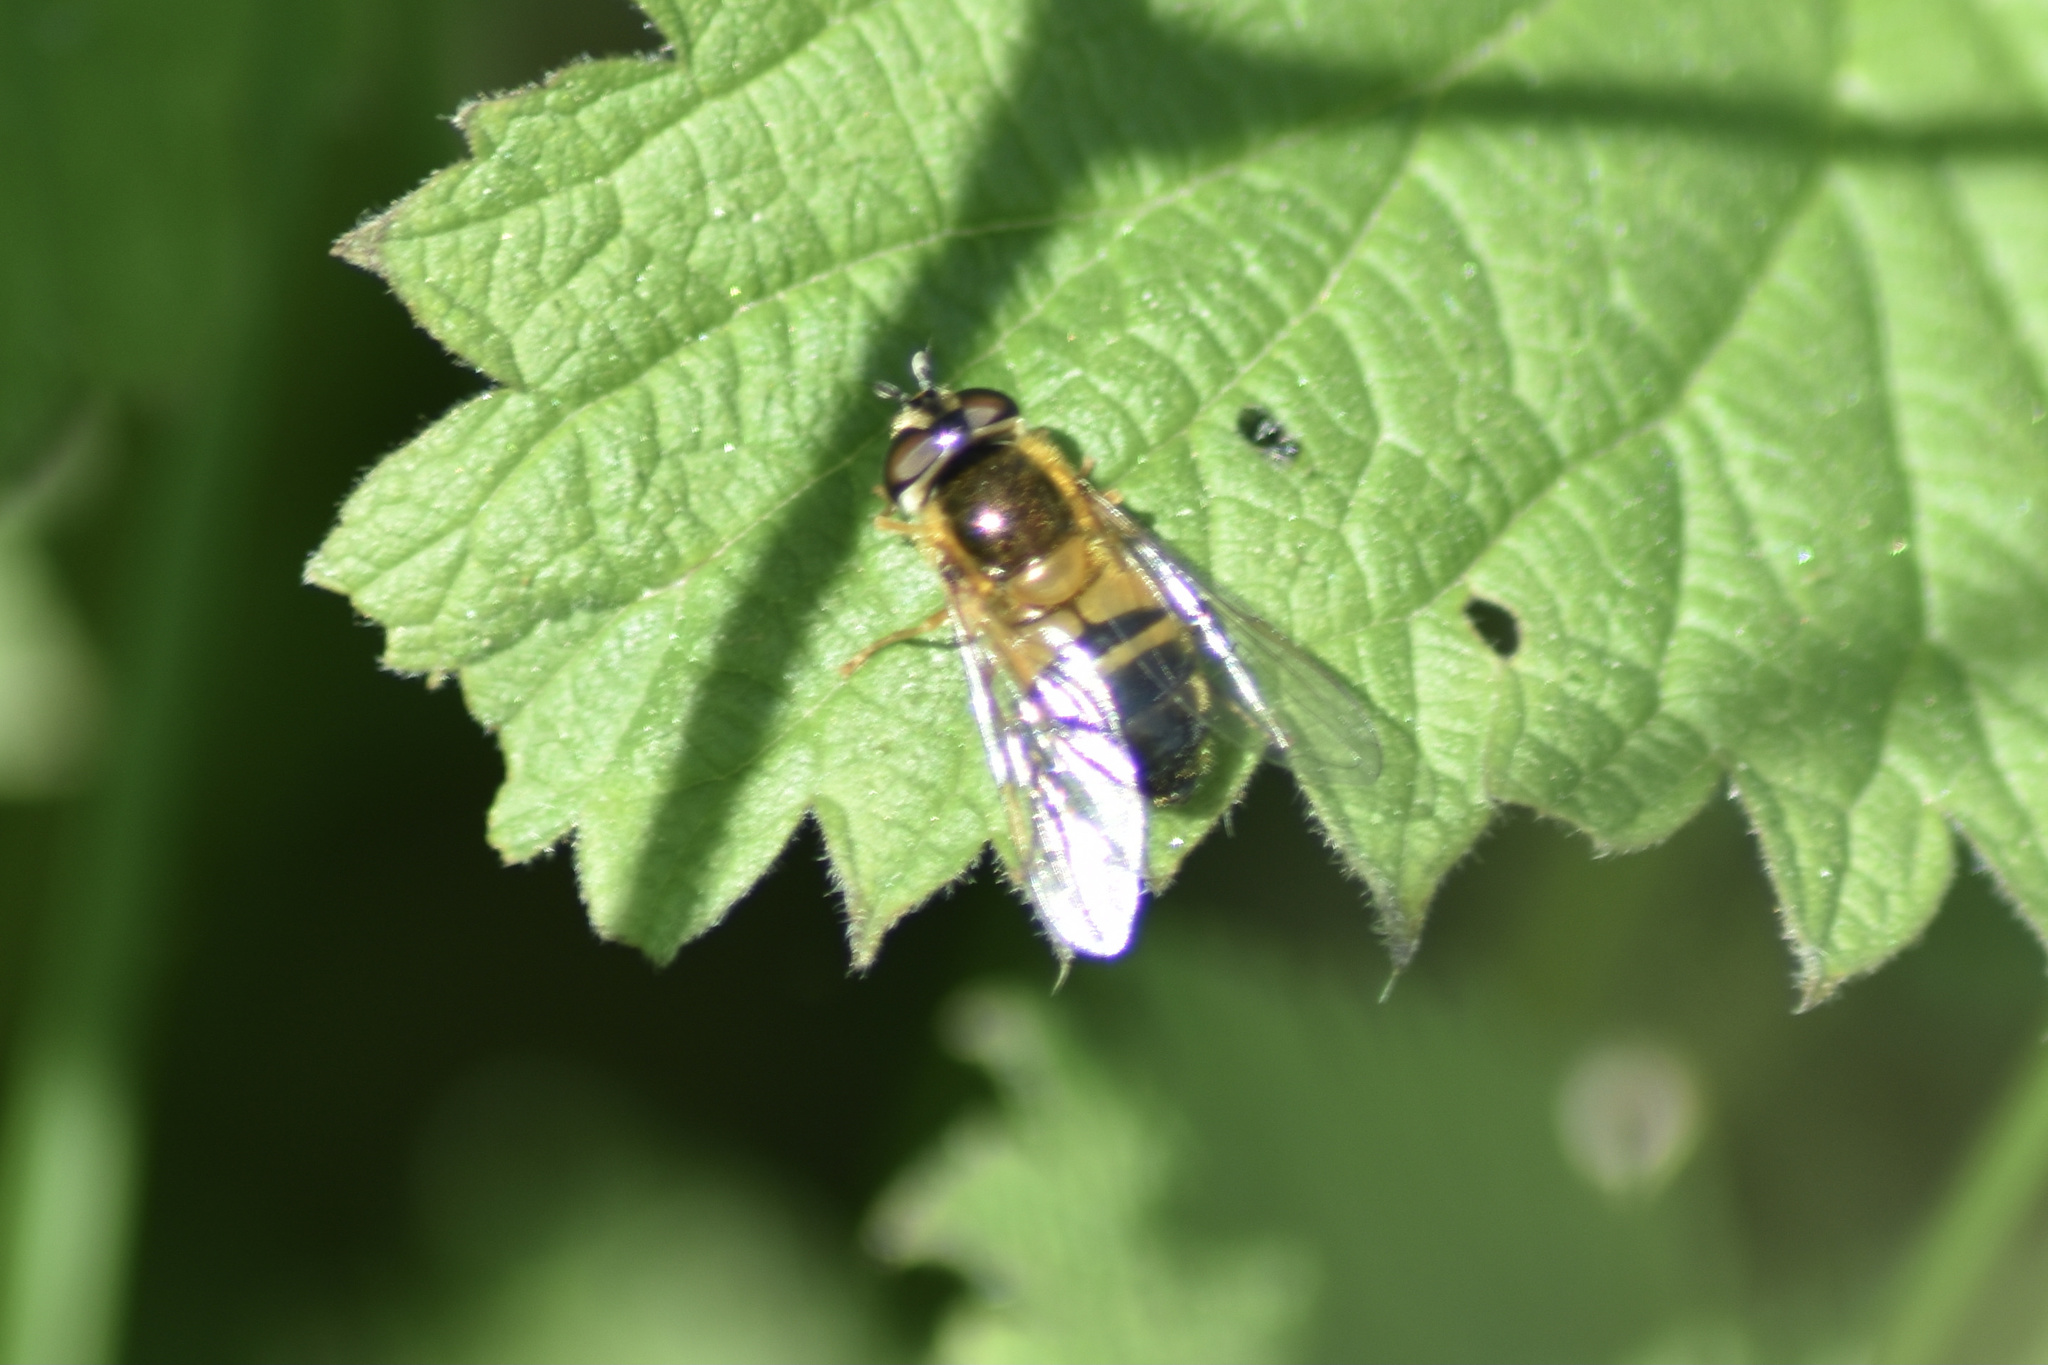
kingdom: Animalia
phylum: Arthropoda
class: Insecta
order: Diptera
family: Syrphidae
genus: Epistrophe
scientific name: Epistrophe eligans
